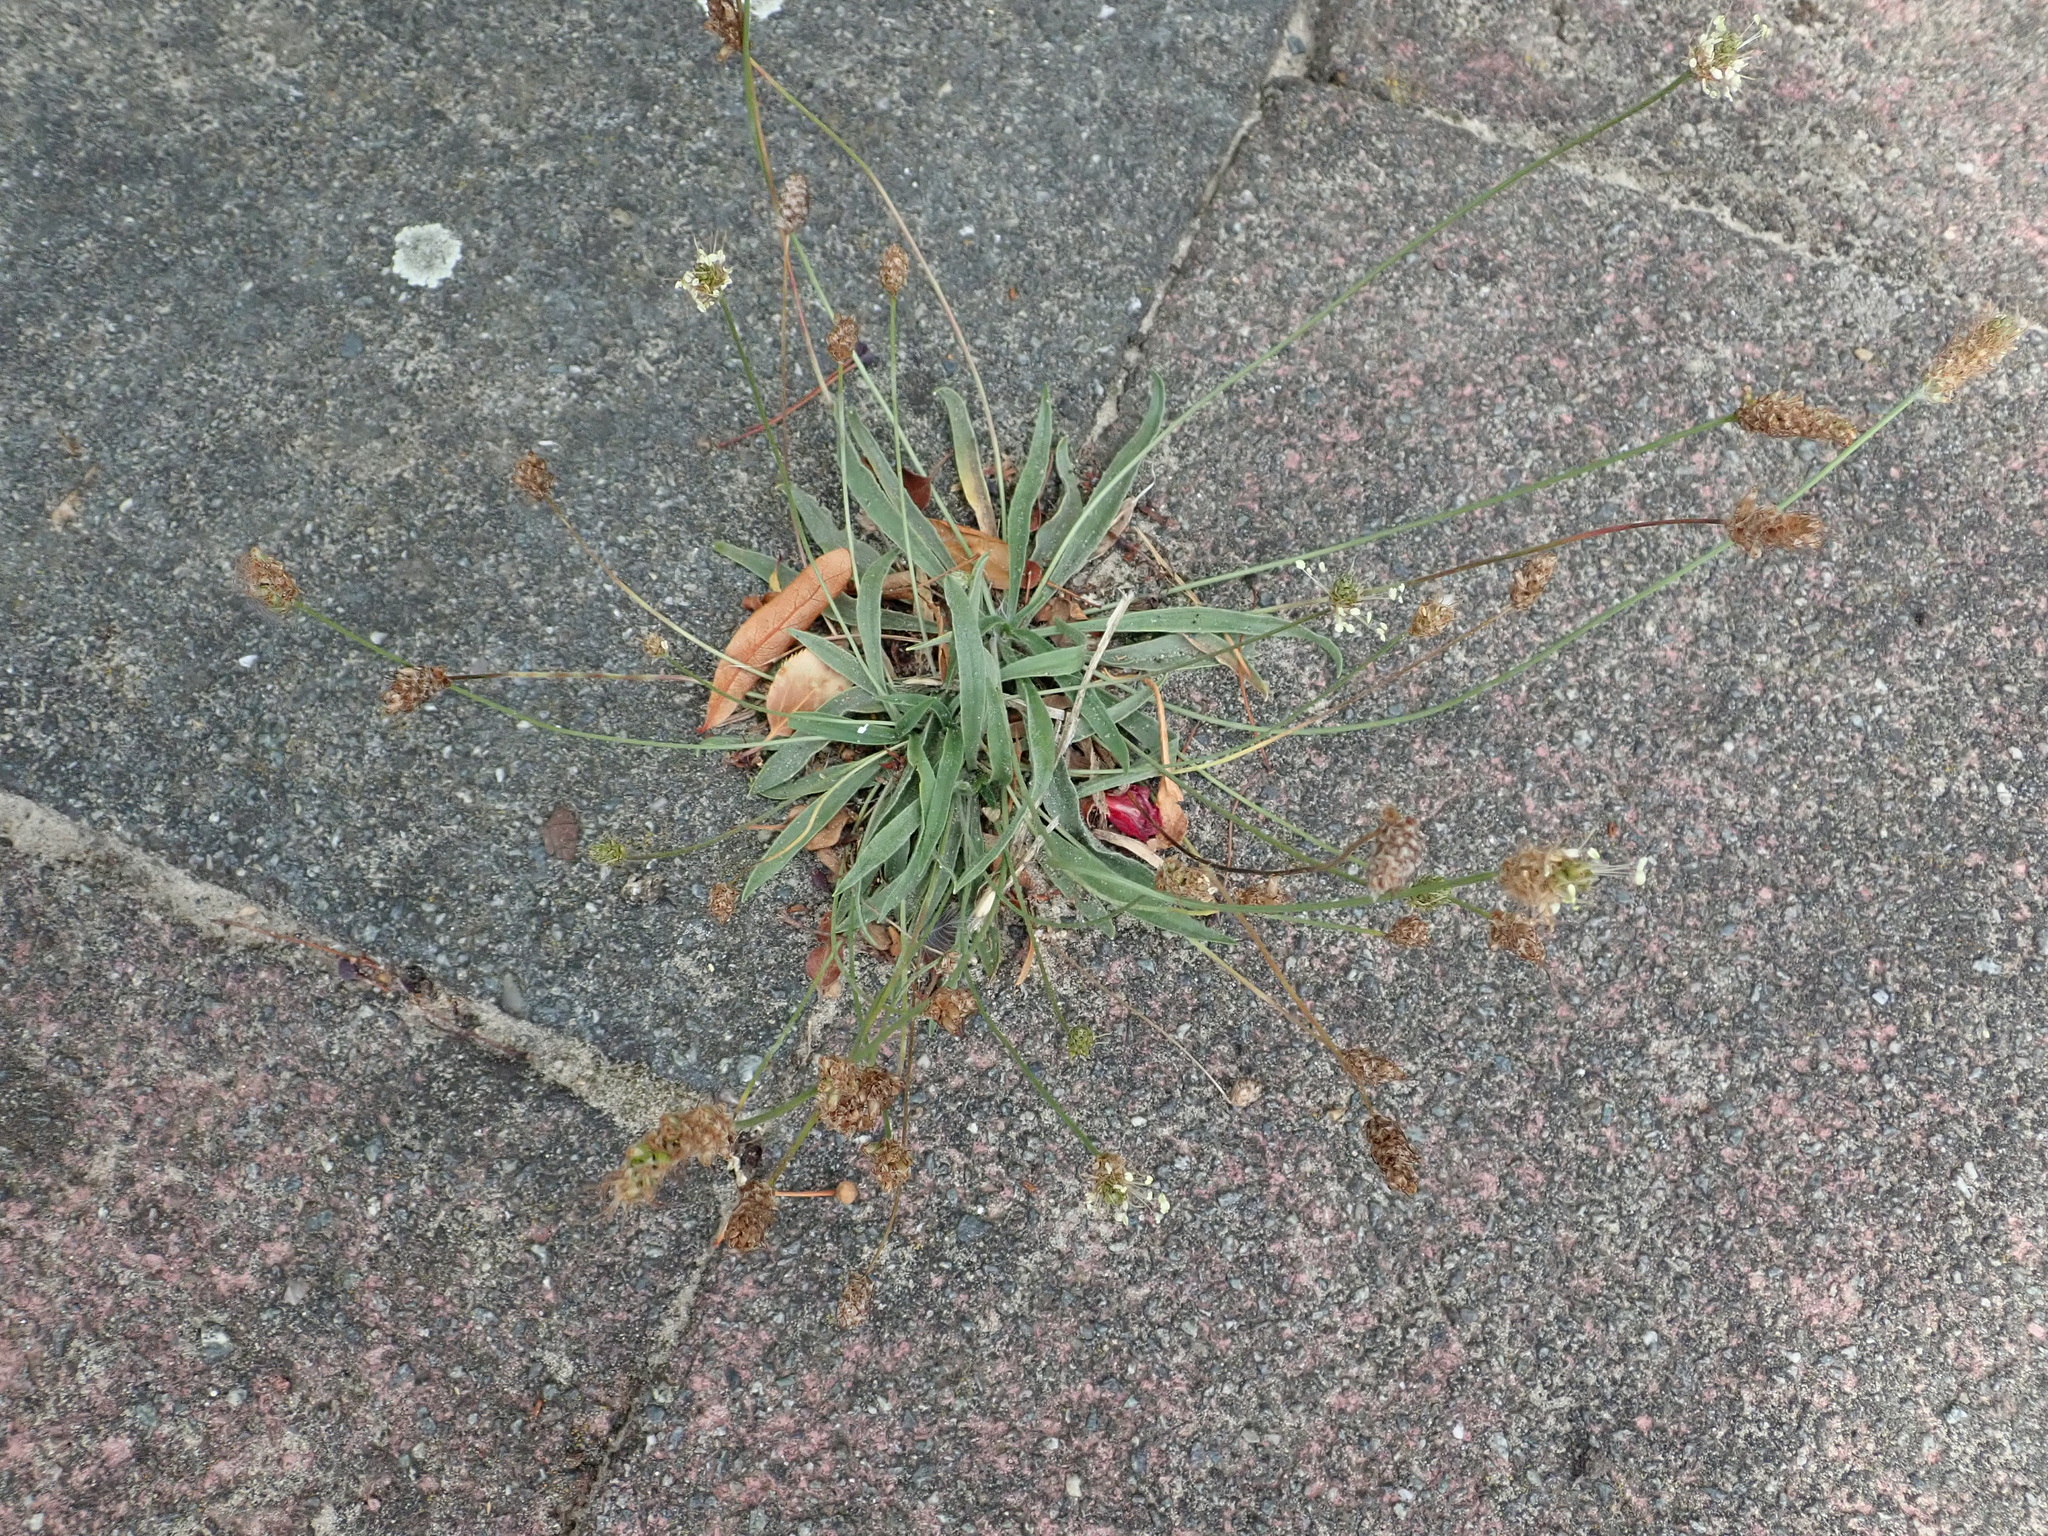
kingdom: Plantae
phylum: Tracheophyta
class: Magnoliopsida
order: Lamiales
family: Plantaginaceae
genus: Plantago
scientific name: Plantago lanceolata
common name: Ribwort plantain
